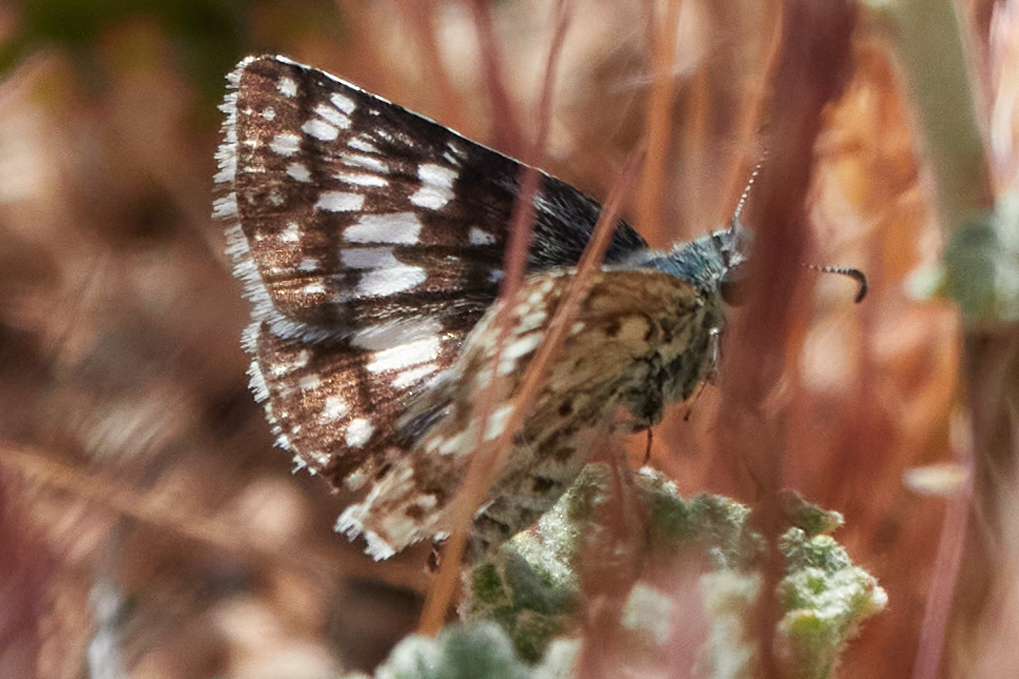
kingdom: Animalia
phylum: Arthropoda
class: Insecta
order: Lepidoptera
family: Hesperiidae
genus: Burnsius
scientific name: Burnsius albezens
